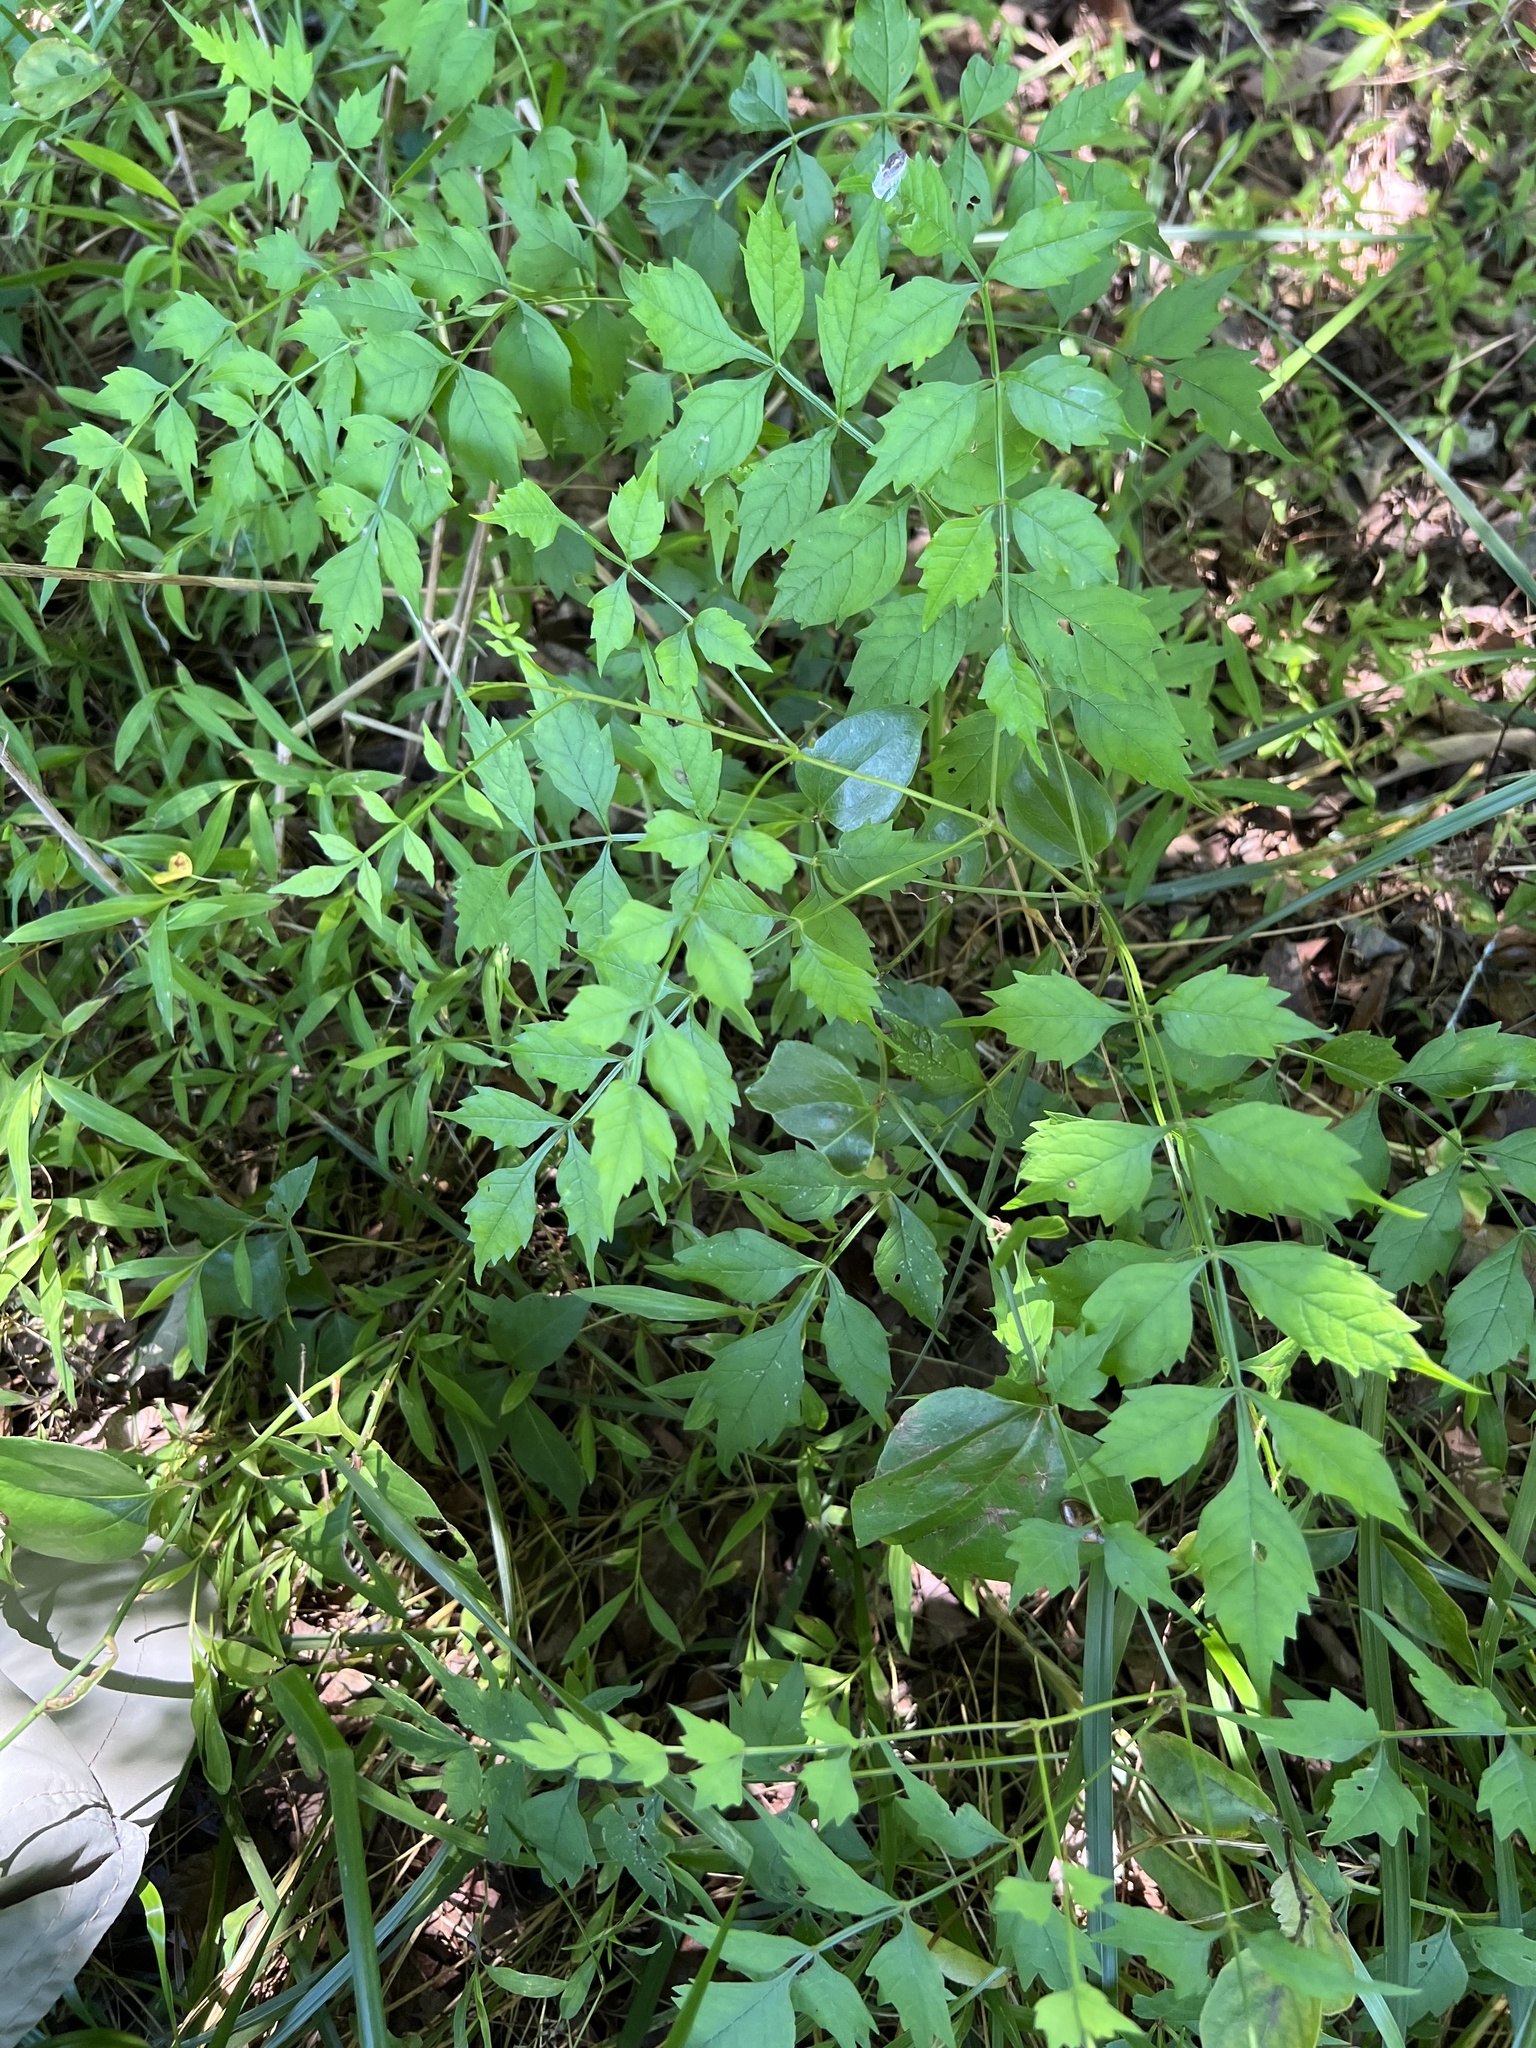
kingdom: Plantae
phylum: Tracheophyta
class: Magnoliopsida
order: Lamiales
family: Bignoniaceae
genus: Campsis
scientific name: Campsis radicans
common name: Trumpet-creeper
